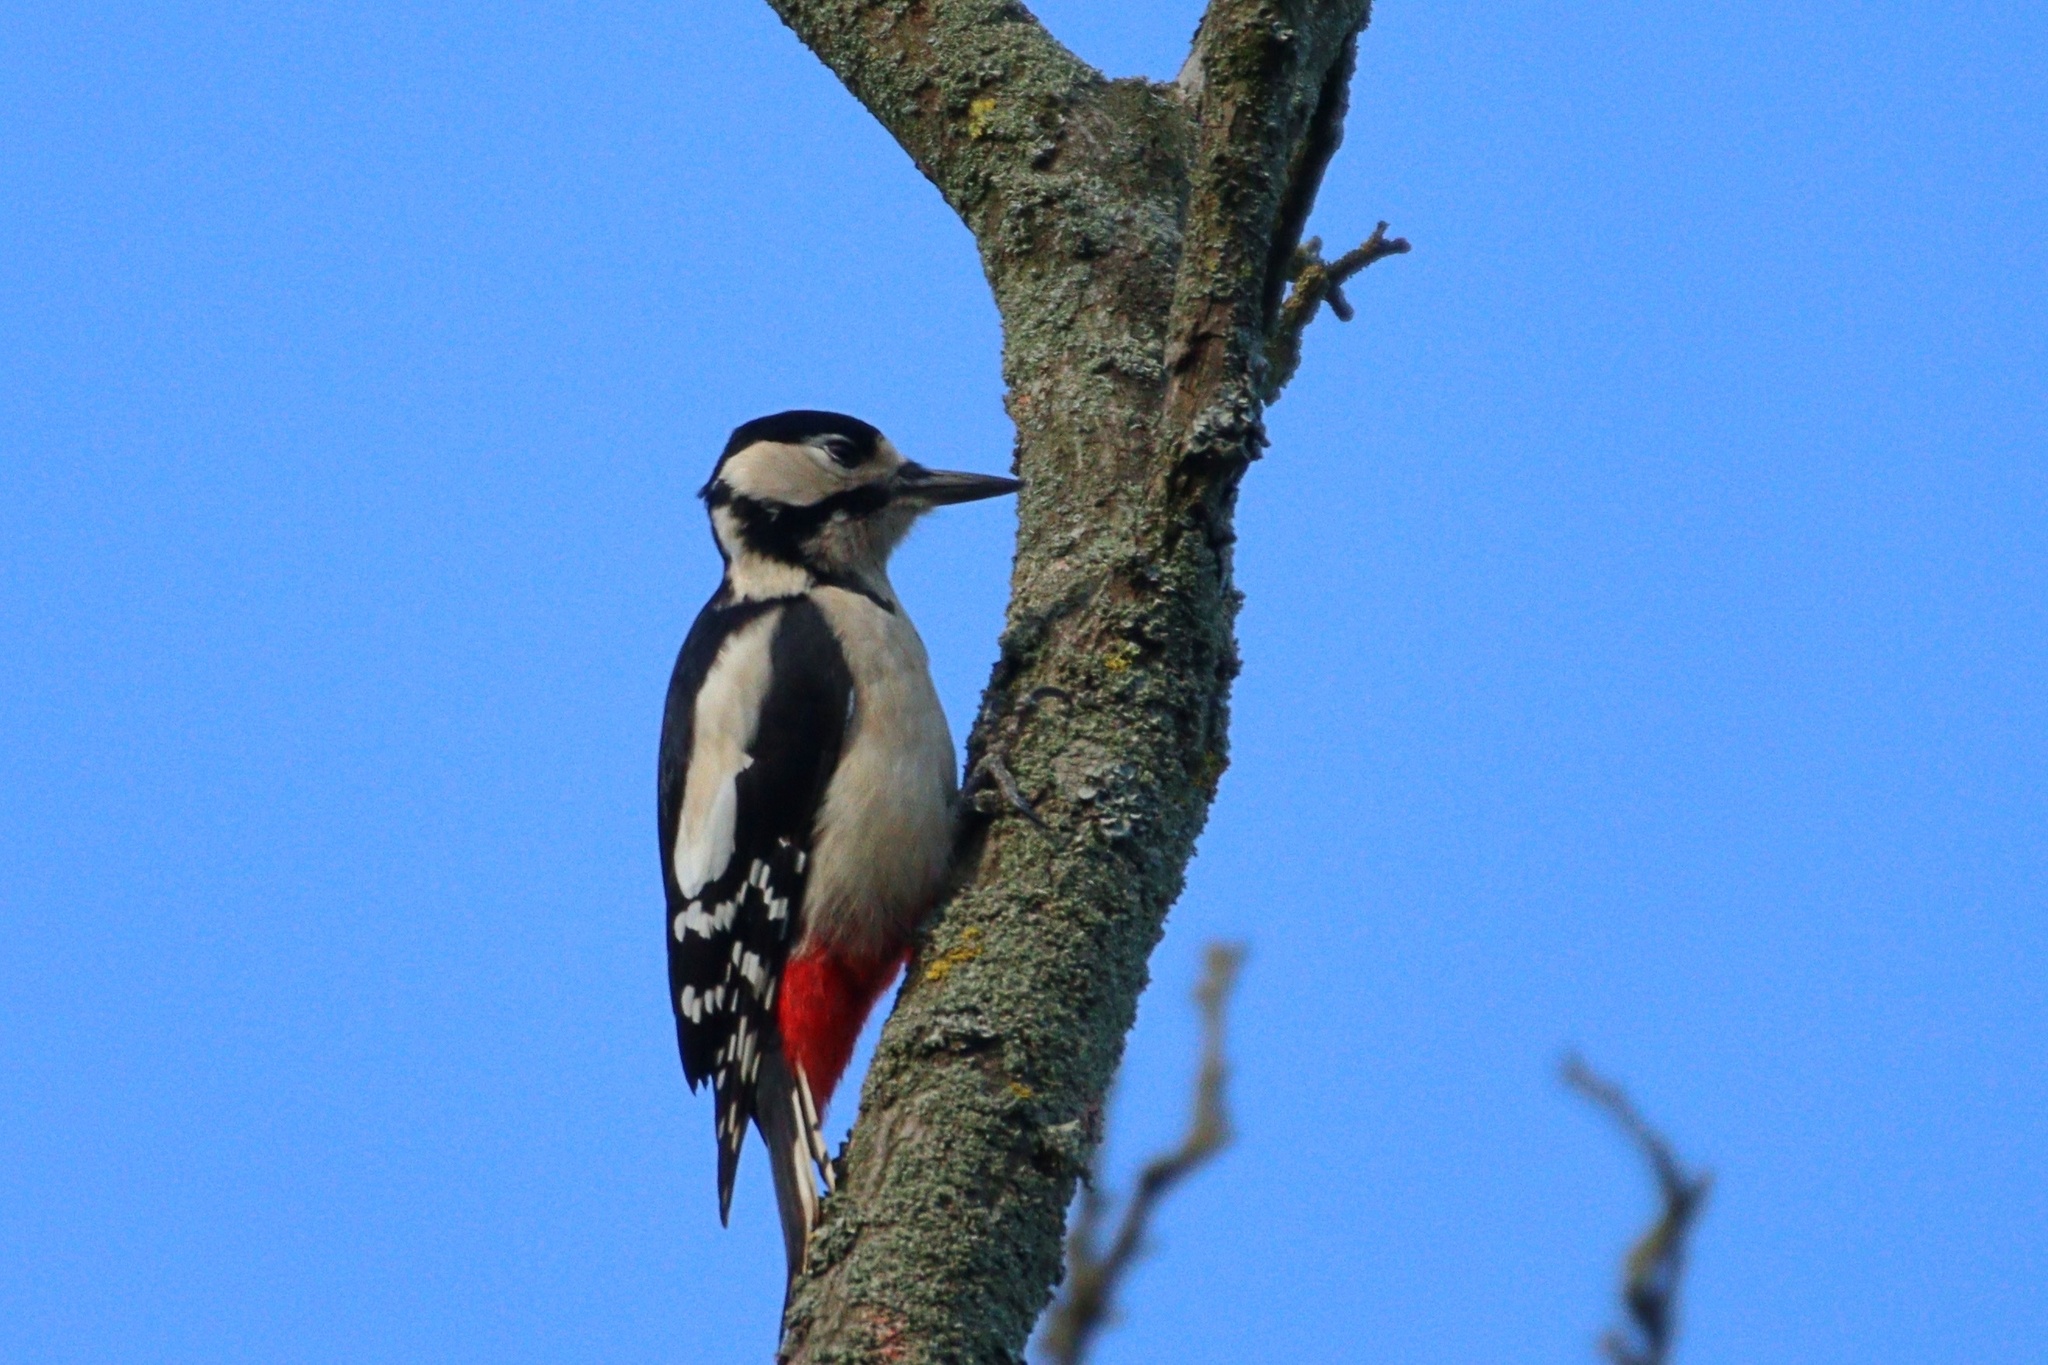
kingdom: Animalia
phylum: Chordata
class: Aves
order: Piciformes
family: Picidae
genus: Dendrocopos
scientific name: Dendrocopos major
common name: Great spotted woodpecker
